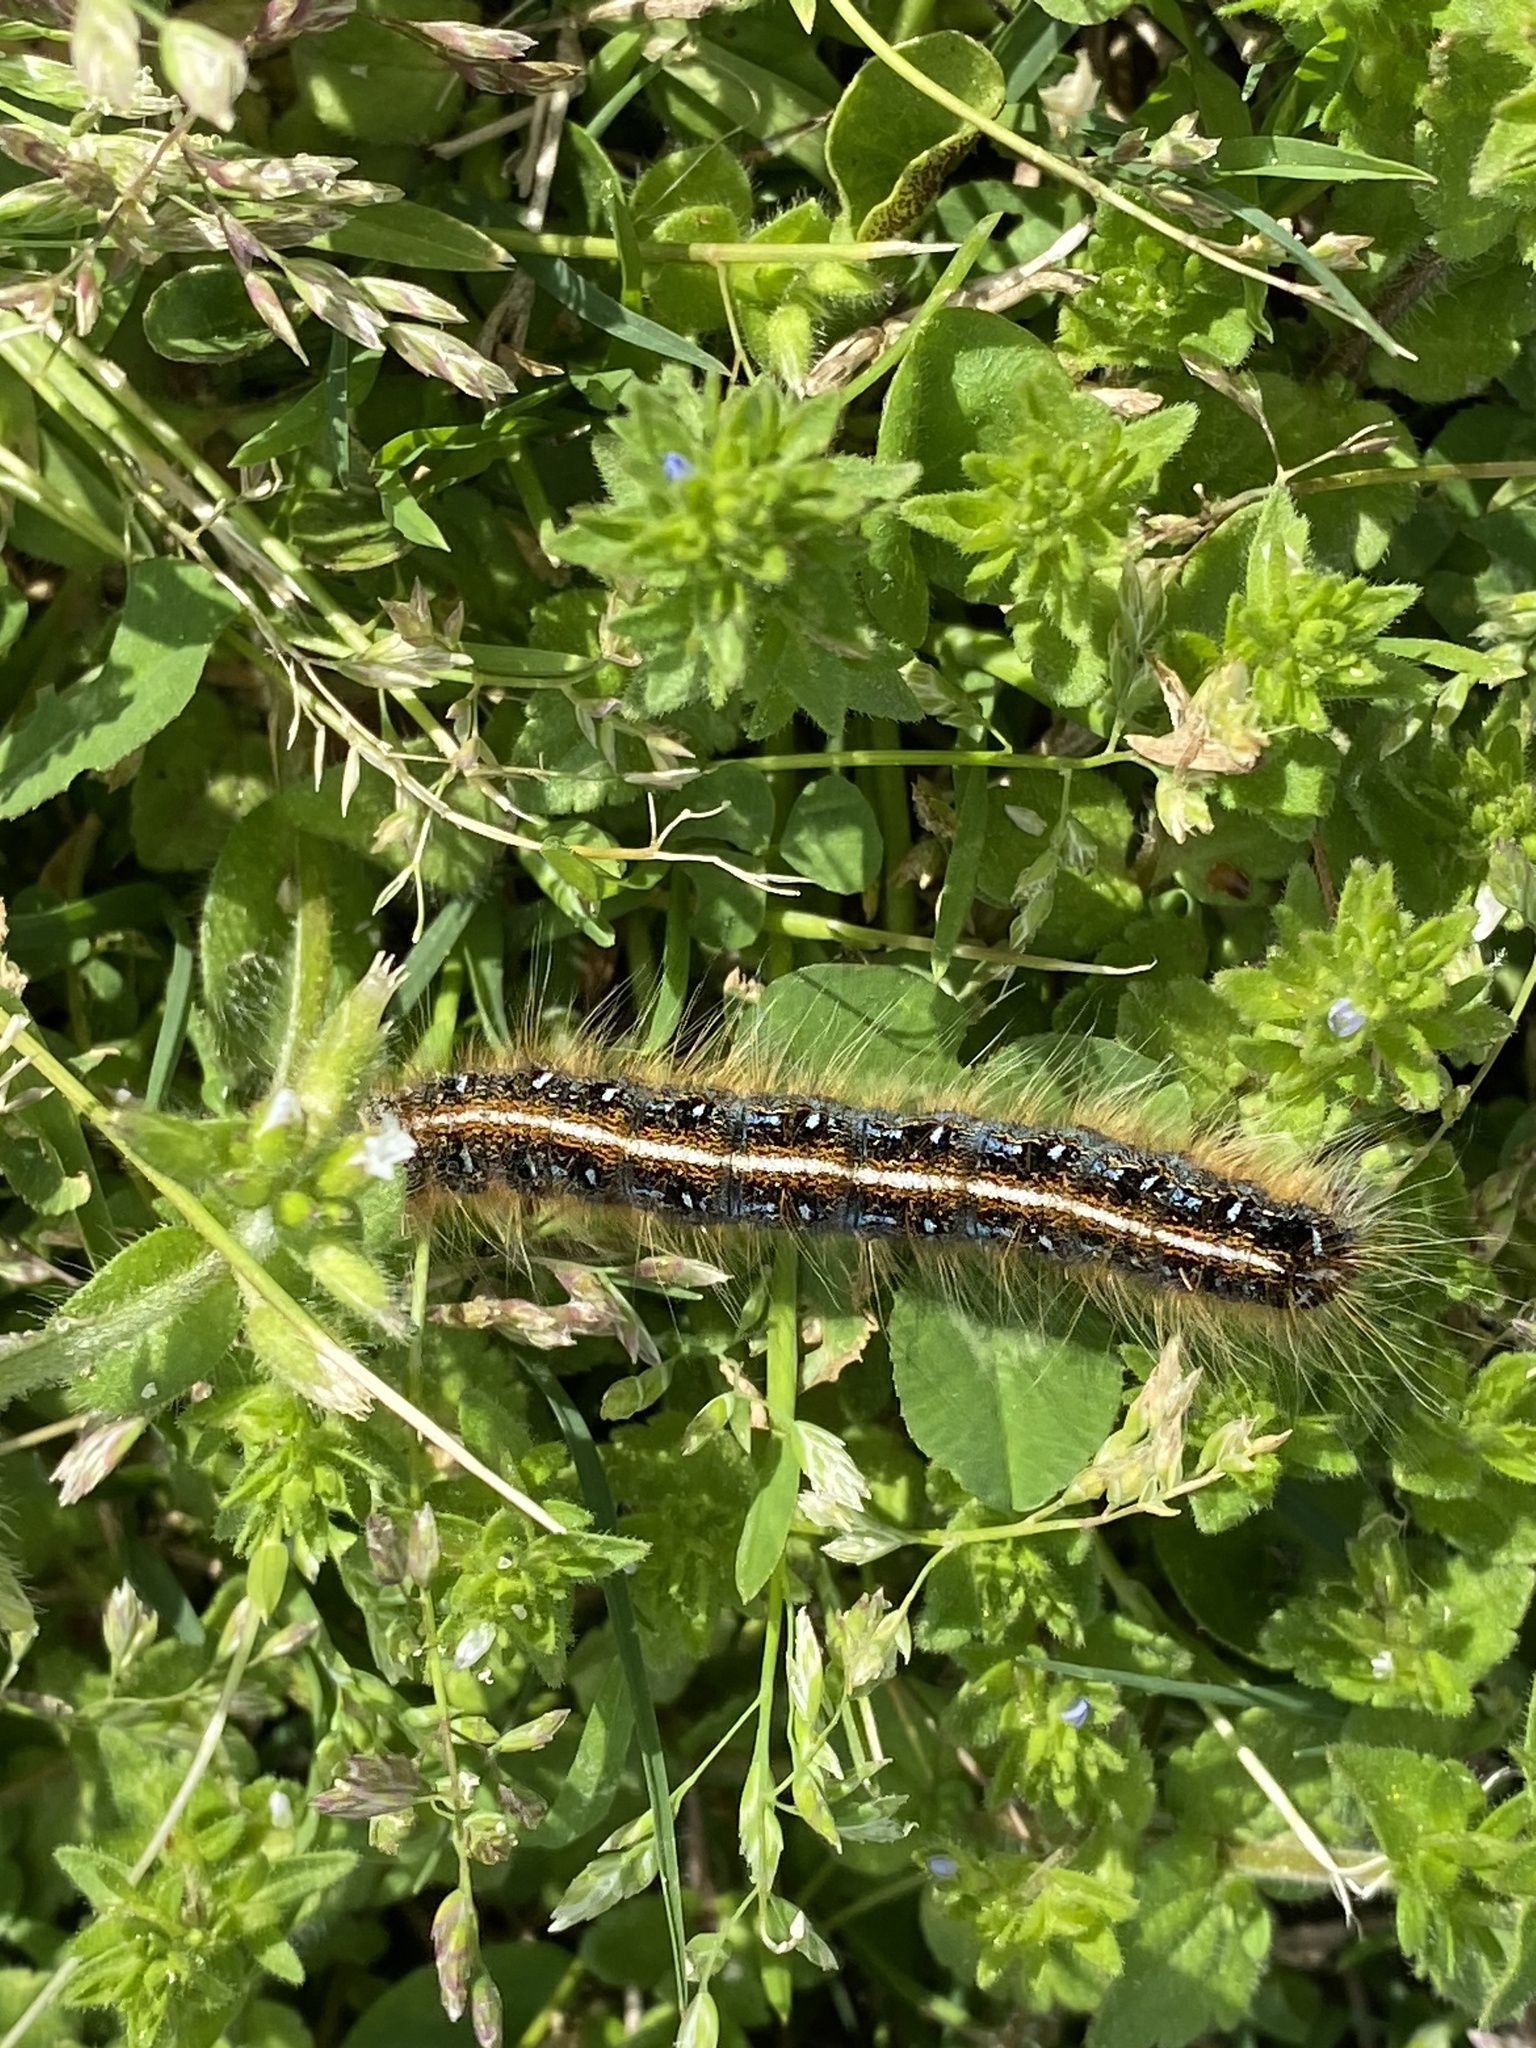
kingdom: Animalia
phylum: Arthropoda
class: Insecta
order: Lepidoptera
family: Lasiocampidae
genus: Malacosoma
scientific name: Malacosoma americana
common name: Eastern tent caterpillar moth
